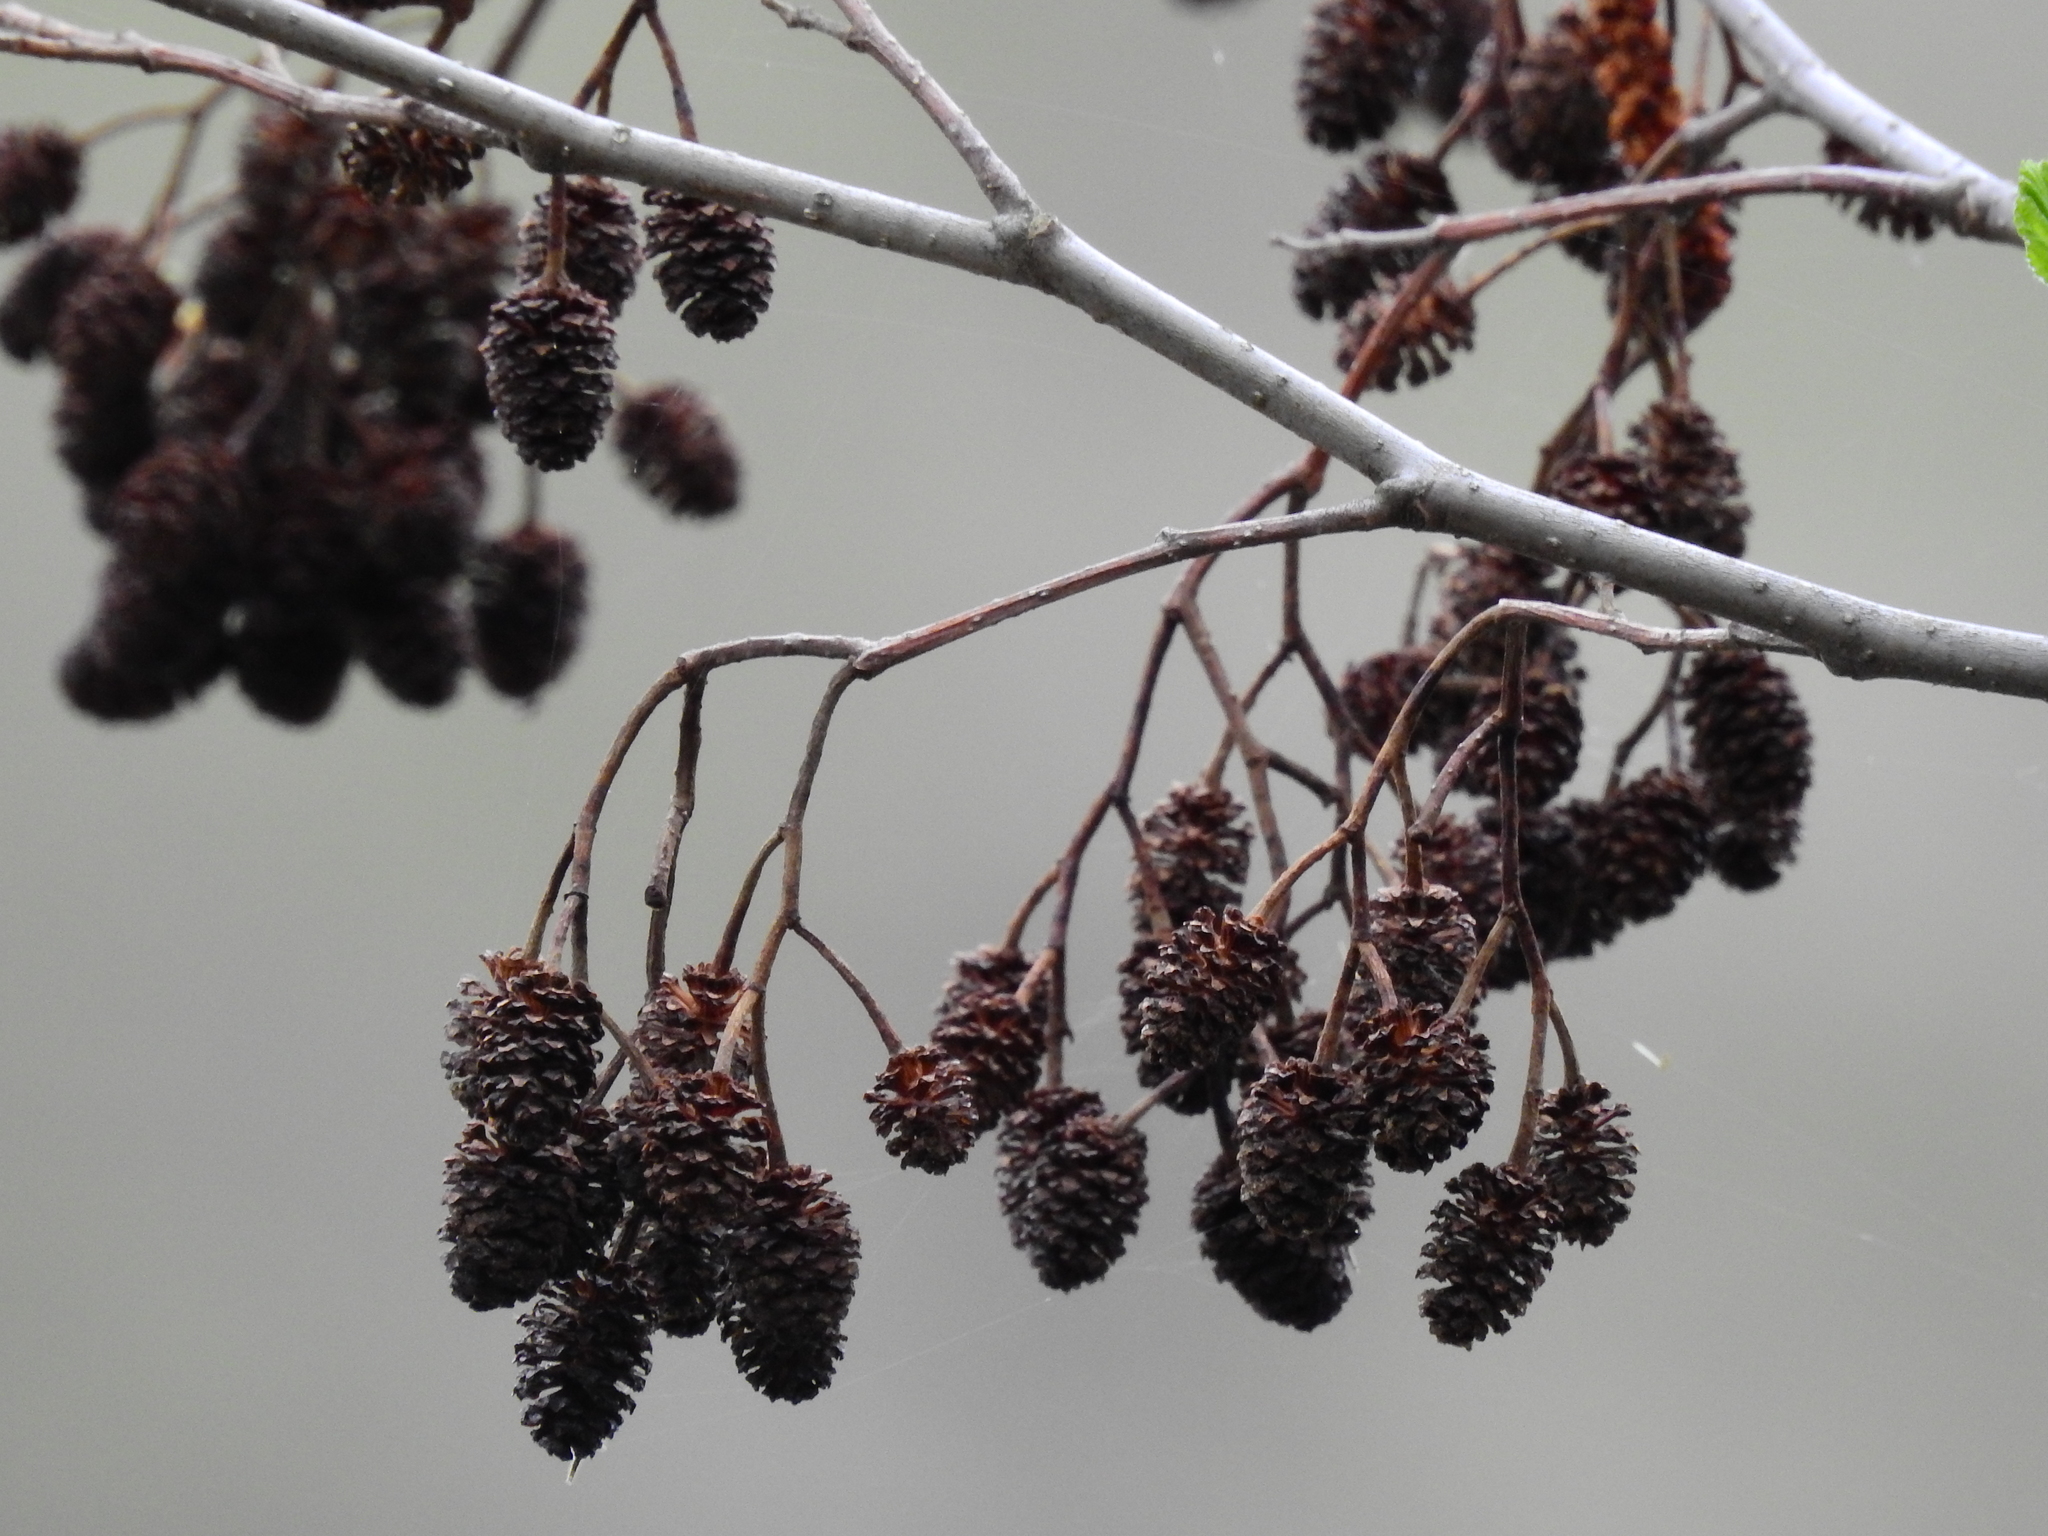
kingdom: Plantae
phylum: Tracheophyta
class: Magnoliopsida
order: Fagales
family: Betulaceae
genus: Alnus
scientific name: Alnus glutinosa
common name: Black alder
